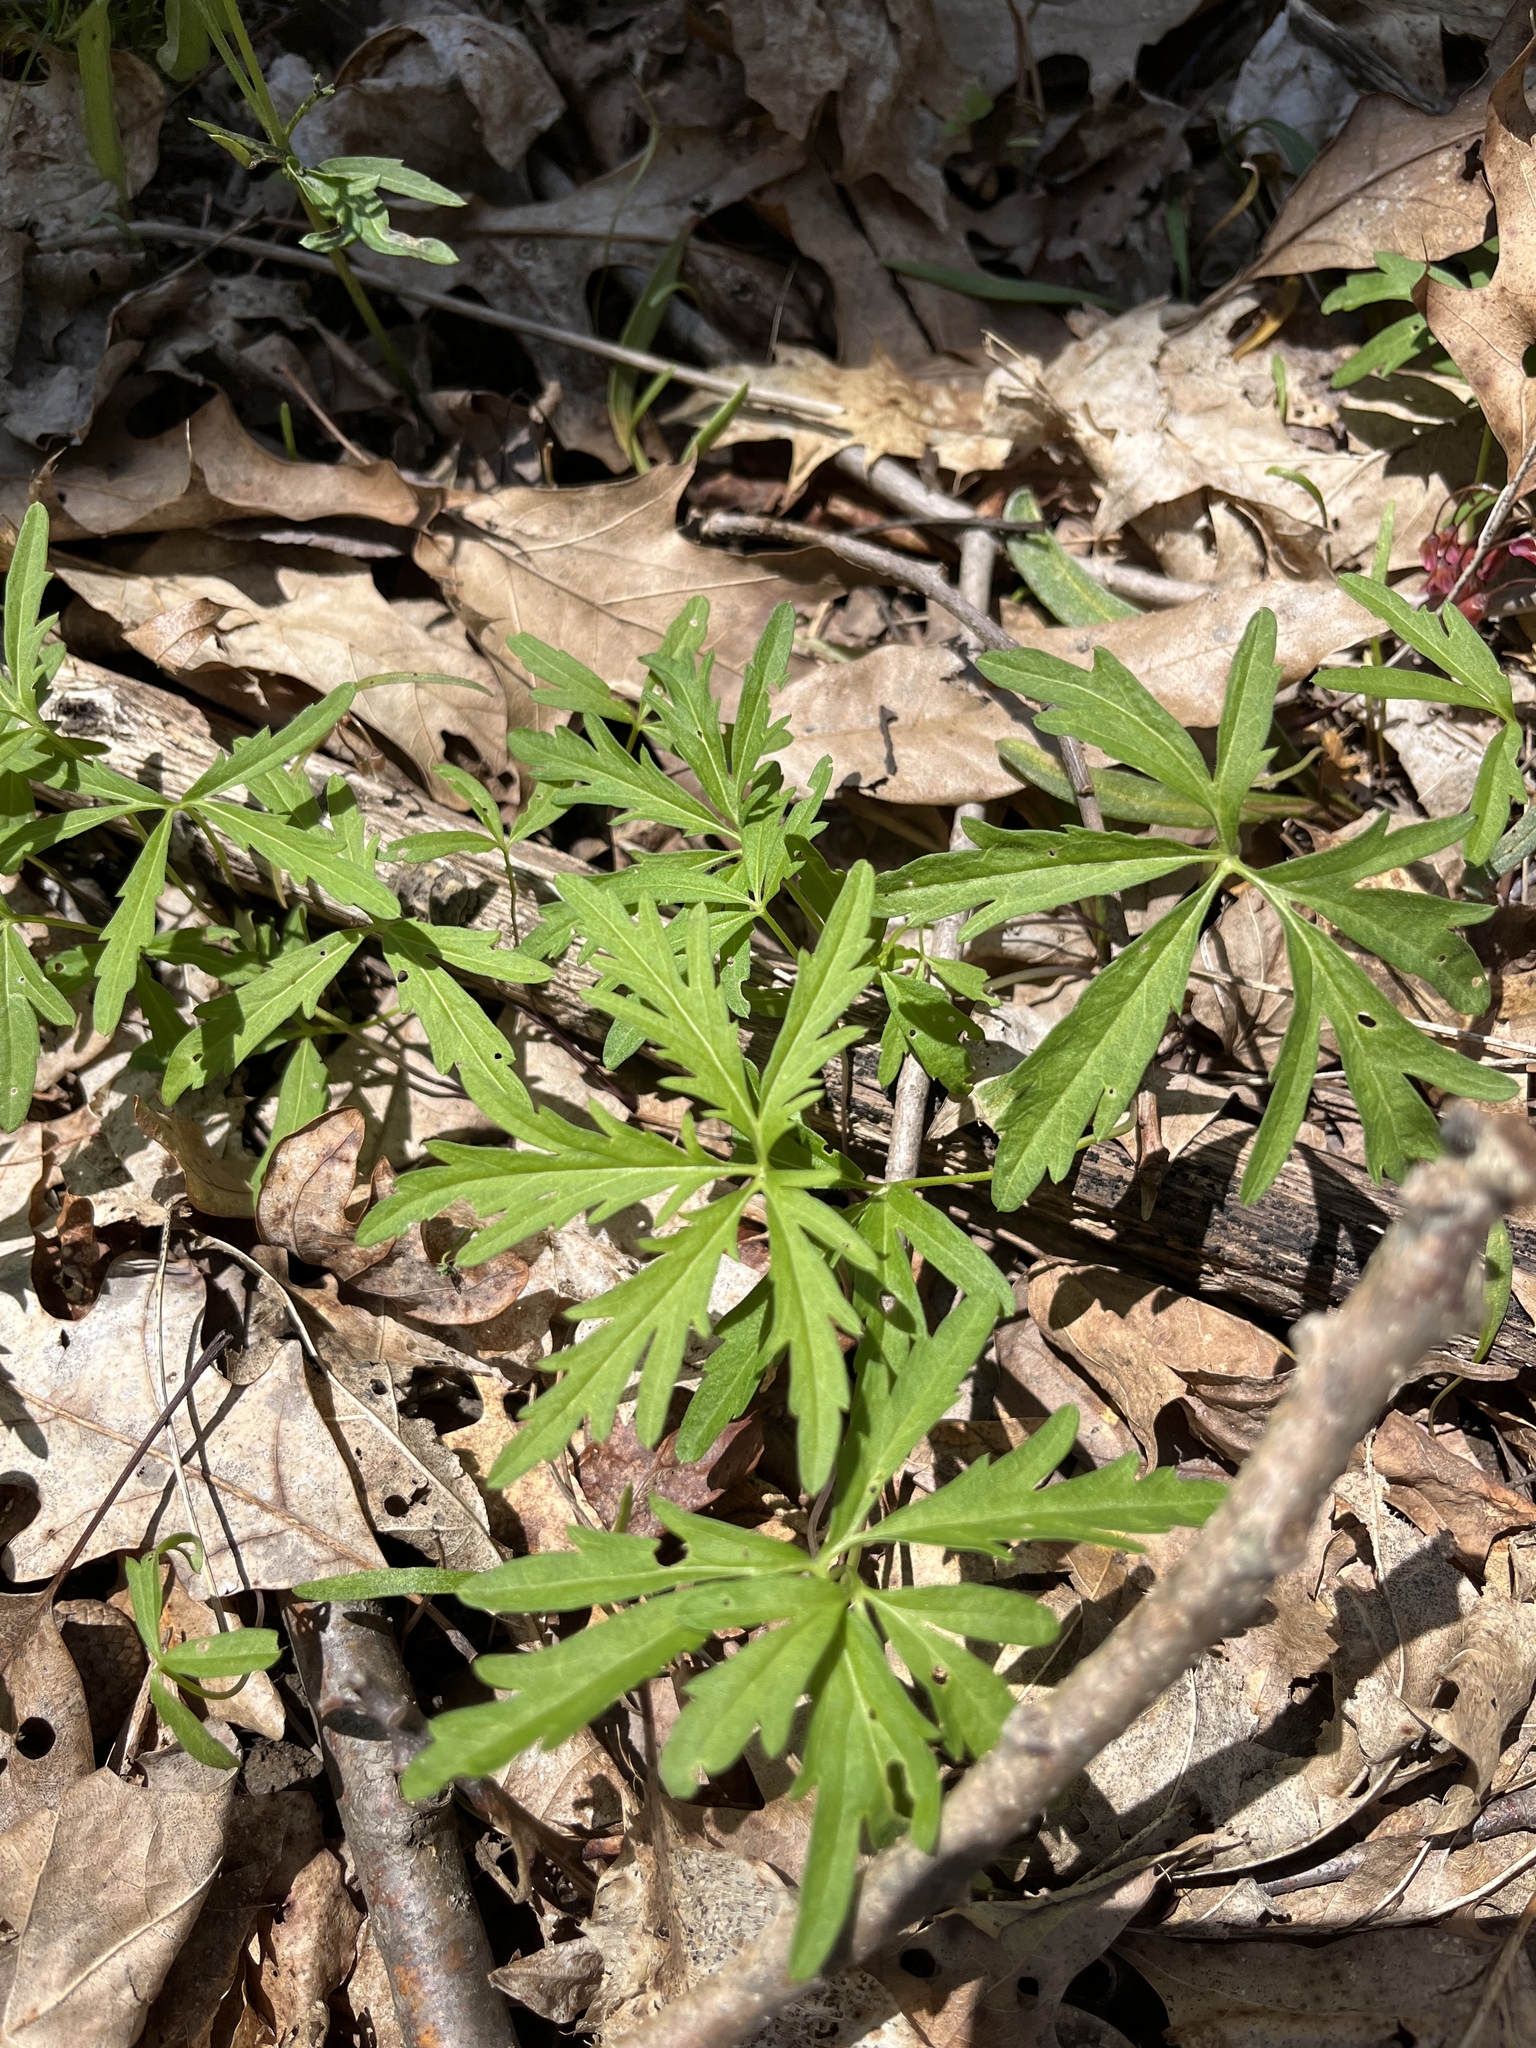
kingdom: Plantae
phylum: Tracheophyta
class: Magnoliopsida
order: Brassicales
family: Brassicaceae
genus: Cardamine
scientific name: Cardamine concatenata
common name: Cut-leaf toothcup
